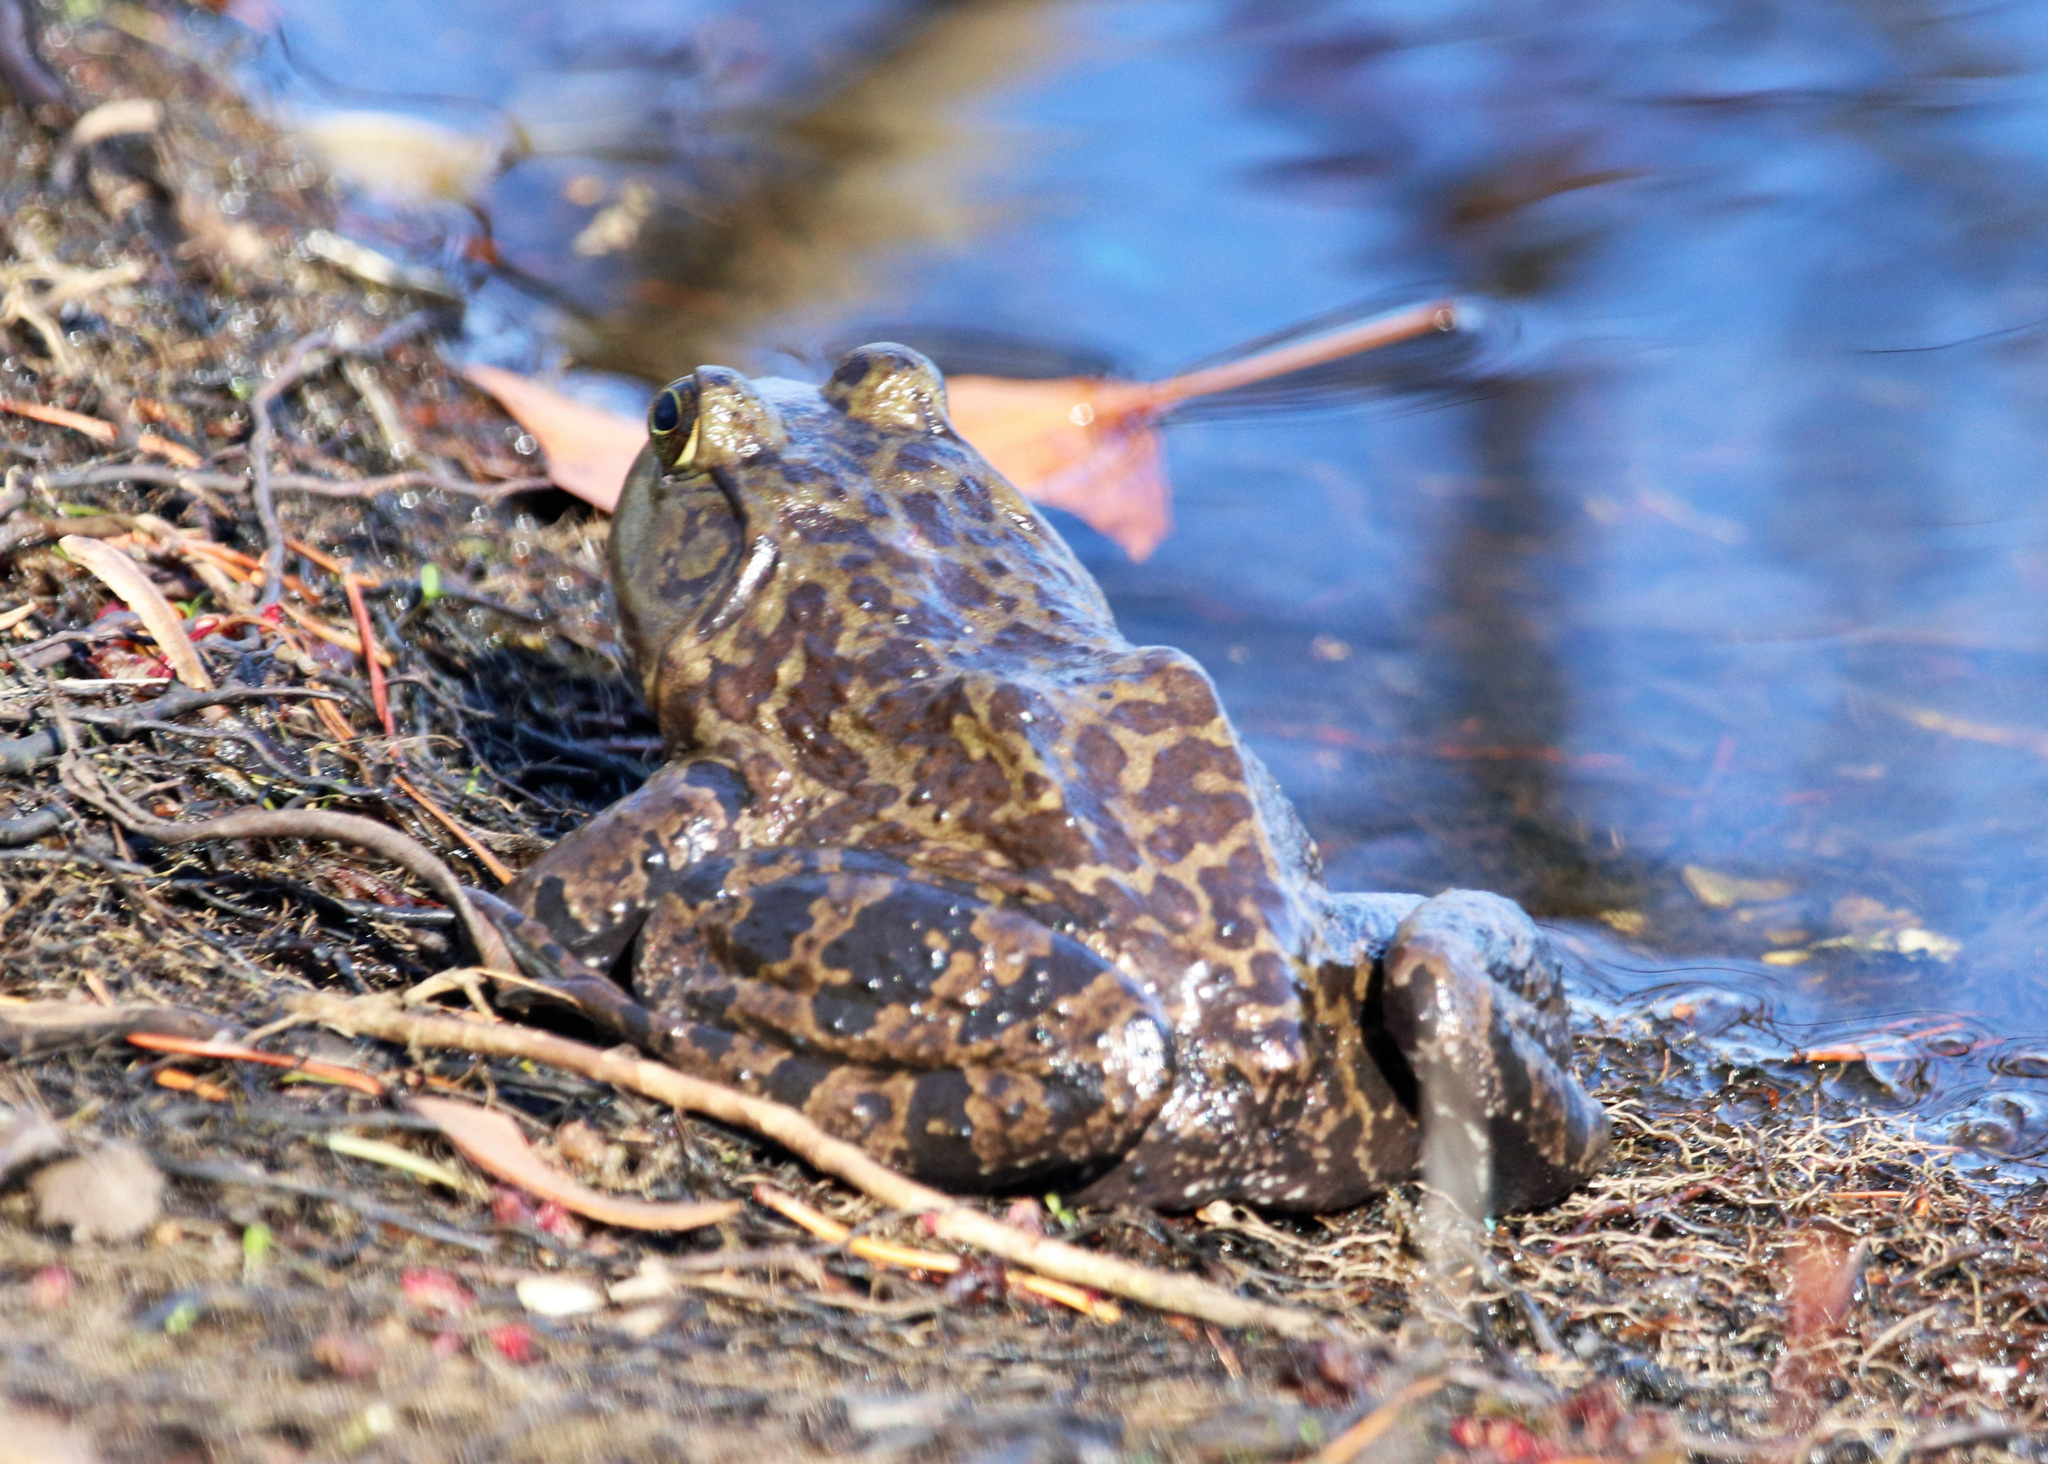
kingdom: Animalia
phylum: Chordata
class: Amphibia
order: Anura
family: Ranidae
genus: Lithobates
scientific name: Lithobates catesbeianus
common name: American bullfrog
